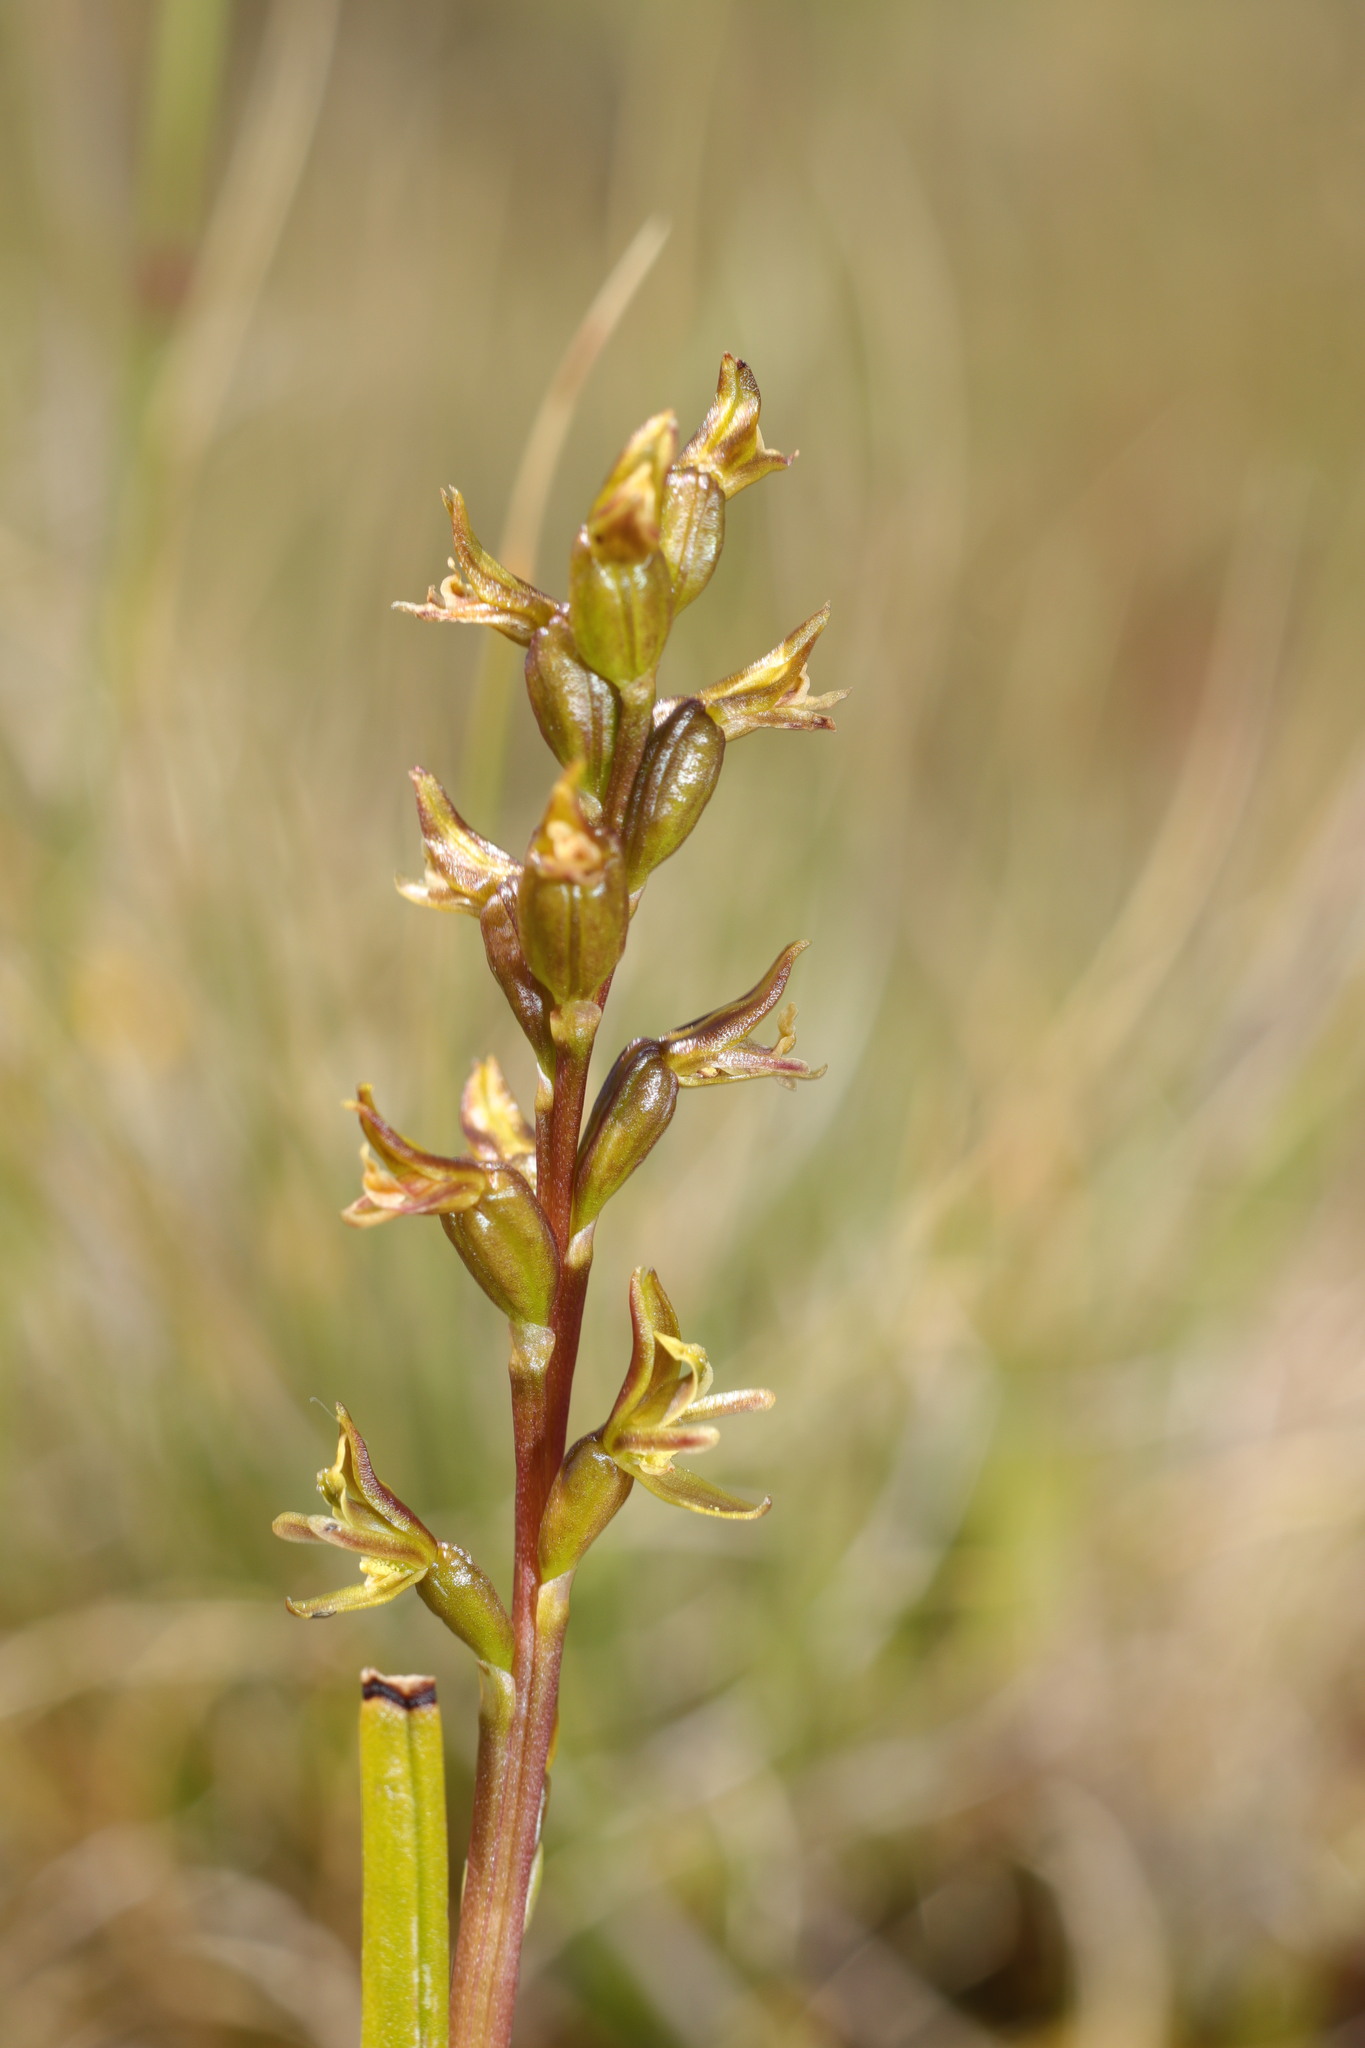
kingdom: Plantae
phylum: Tracheophyta
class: Liliopsida
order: Asparagales
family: Orchidaceae
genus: Prasophyllum
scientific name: Prasophyllum colensoi
